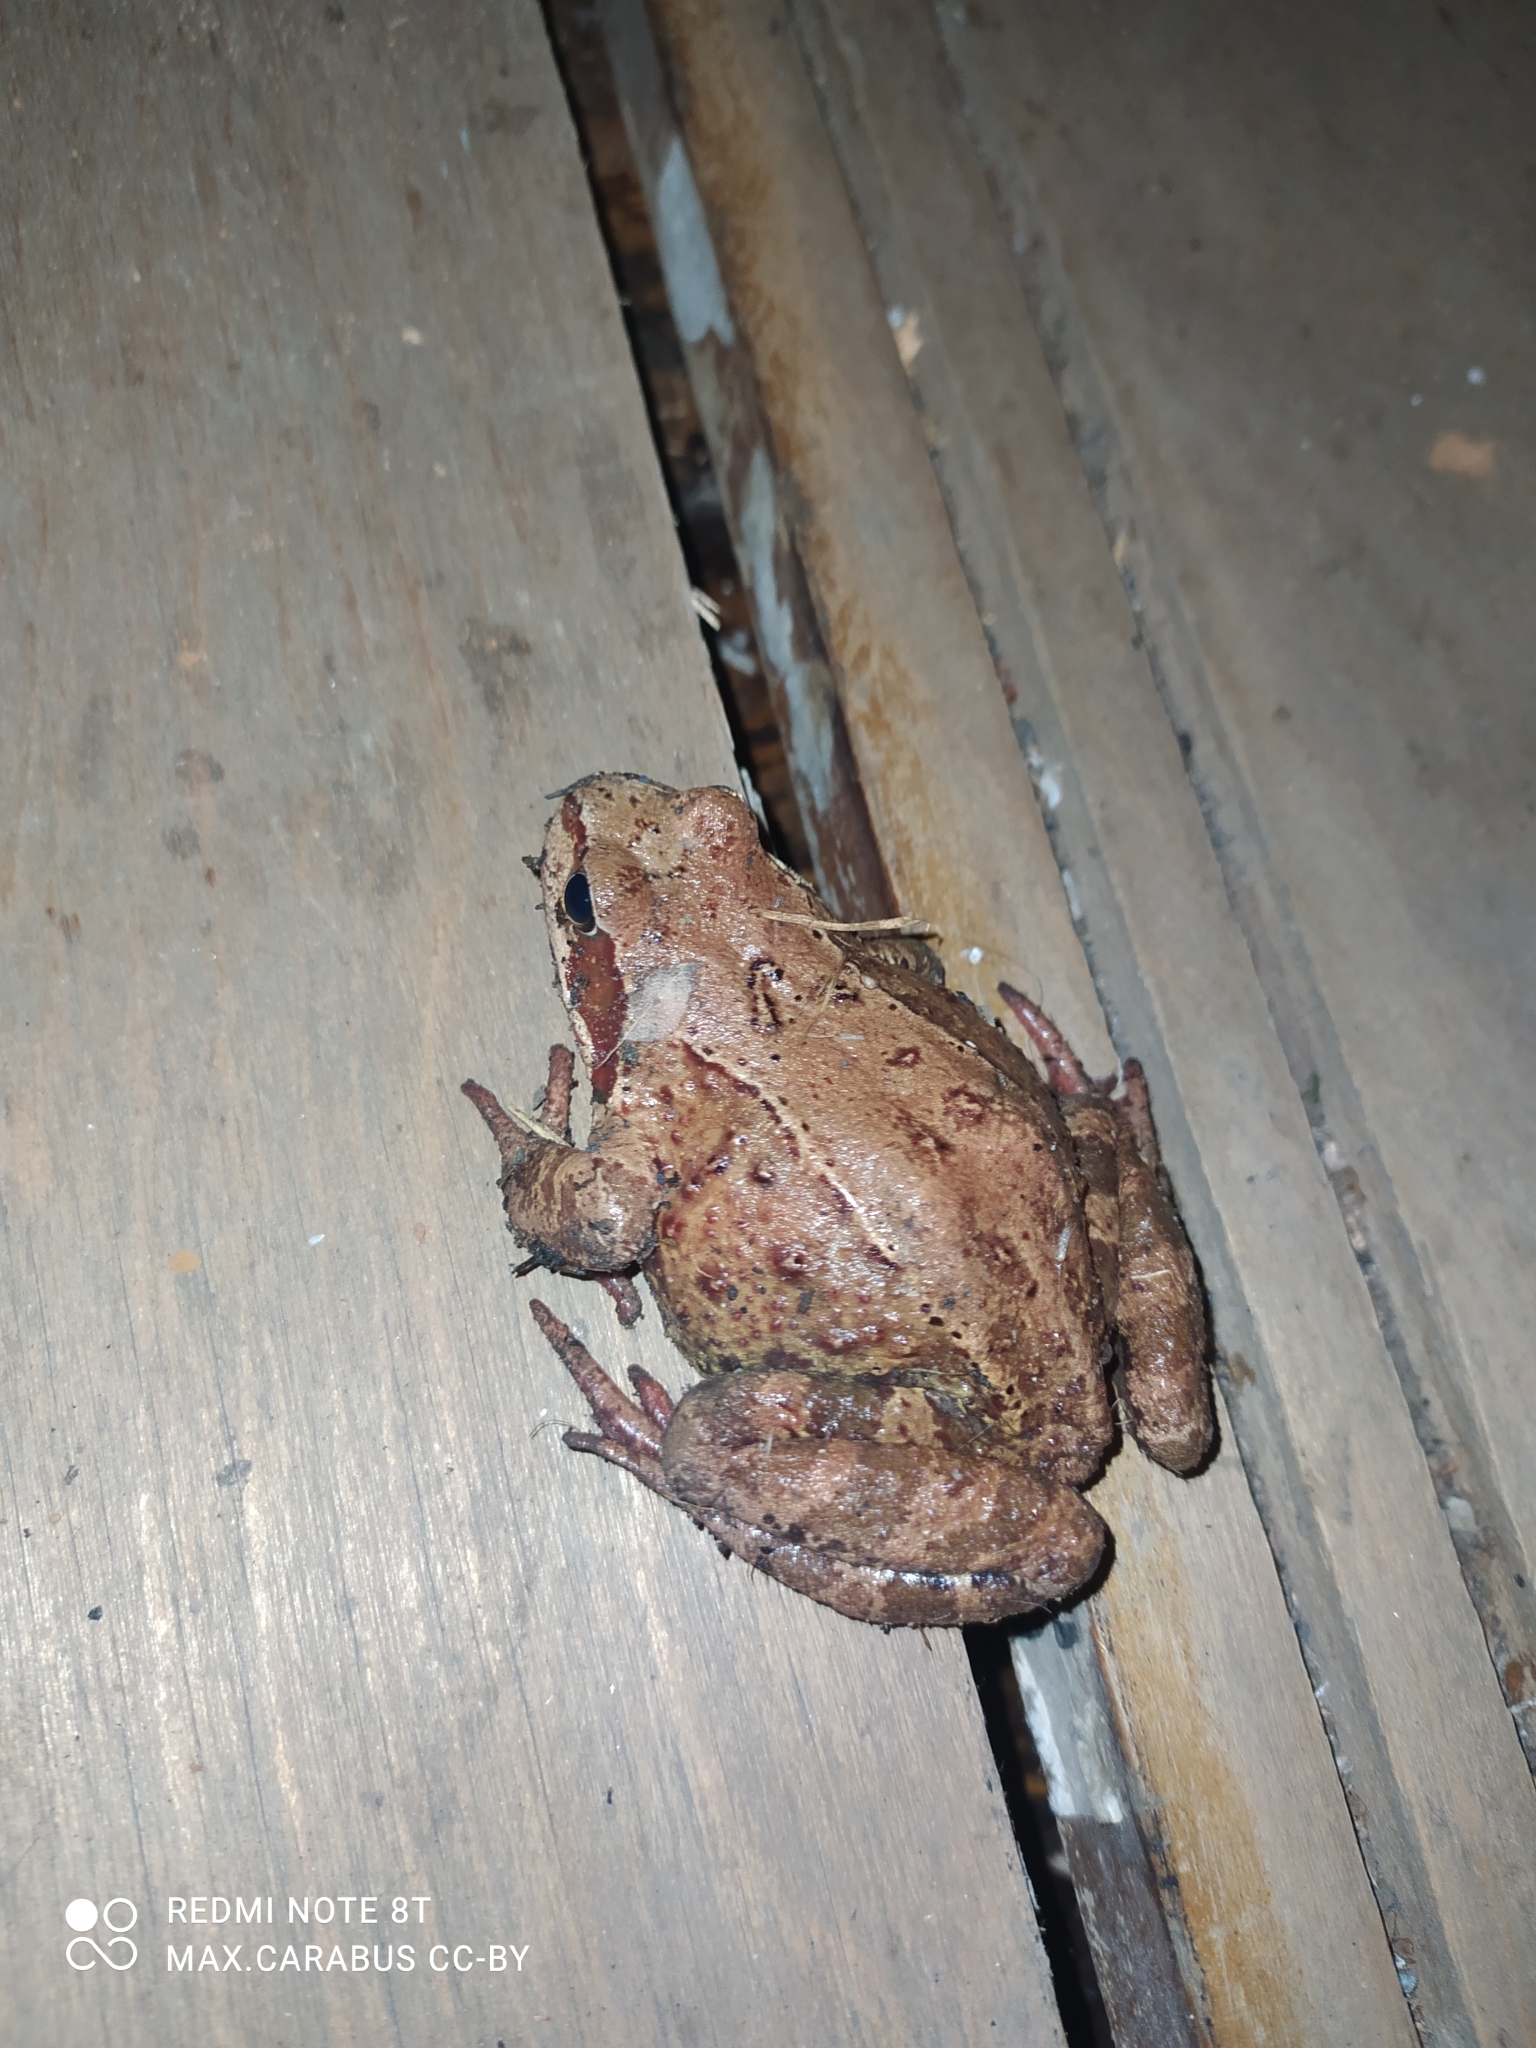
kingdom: Animalia
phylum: Chordata
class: Amphibia
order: Anura
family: Ranidae
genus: Rana
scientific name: Rana temporaria
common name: Common frog
